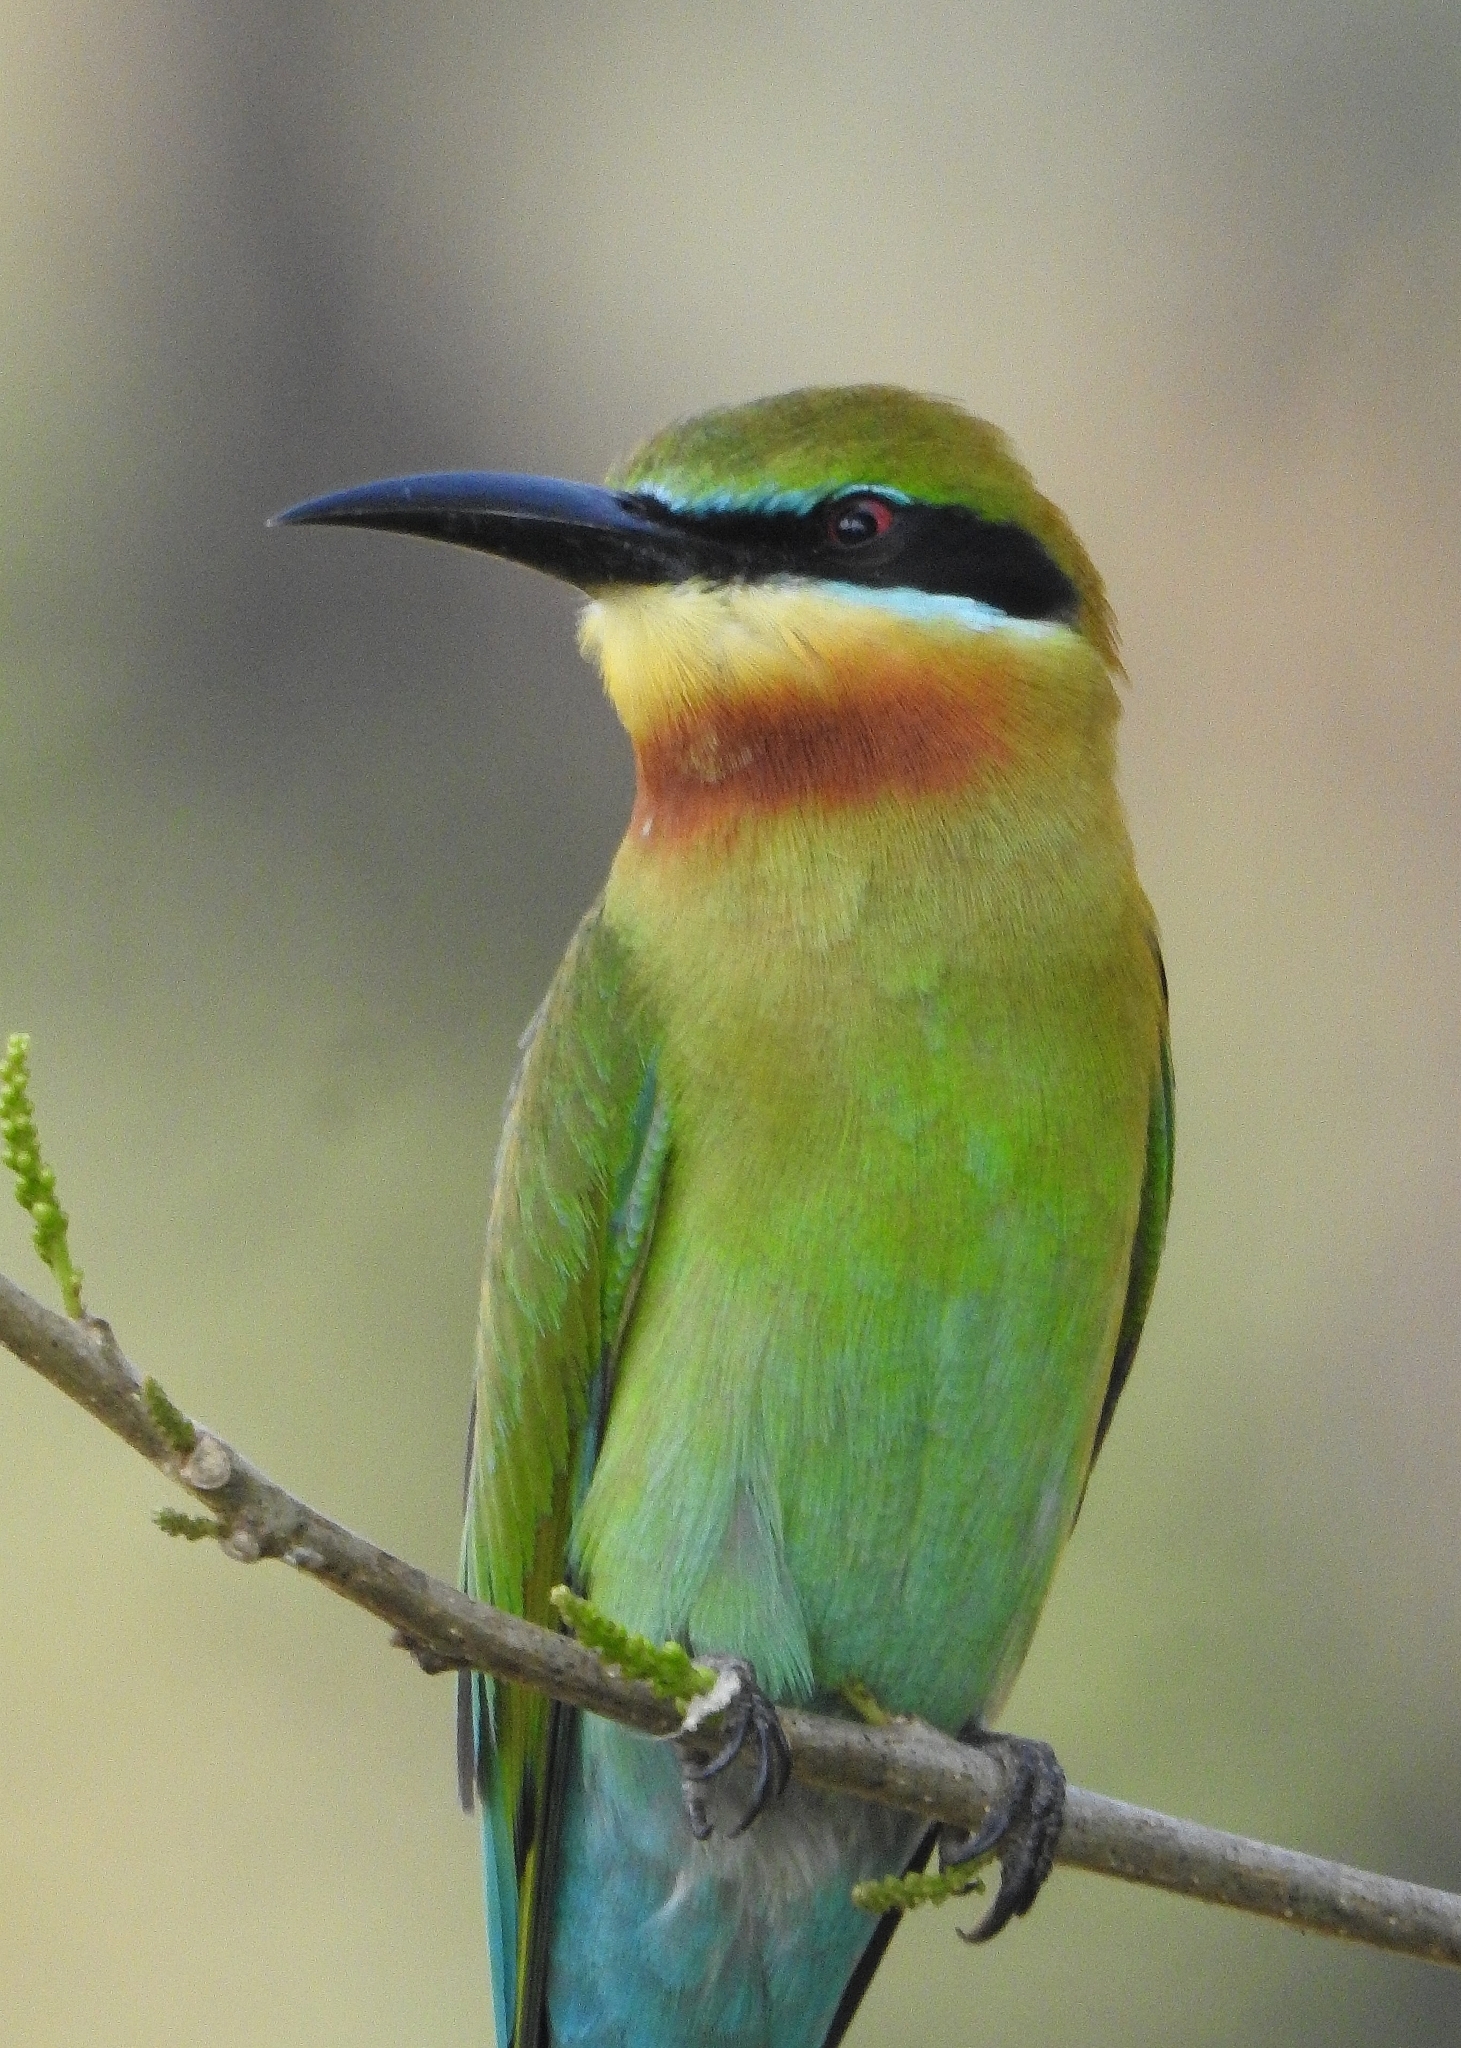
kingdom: Animalia
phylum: Chordata
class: Aves
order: Coraciiformes
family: Meropidae
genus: Merops
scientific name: Merops philippinus
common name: Blue-tailed bee-eater
